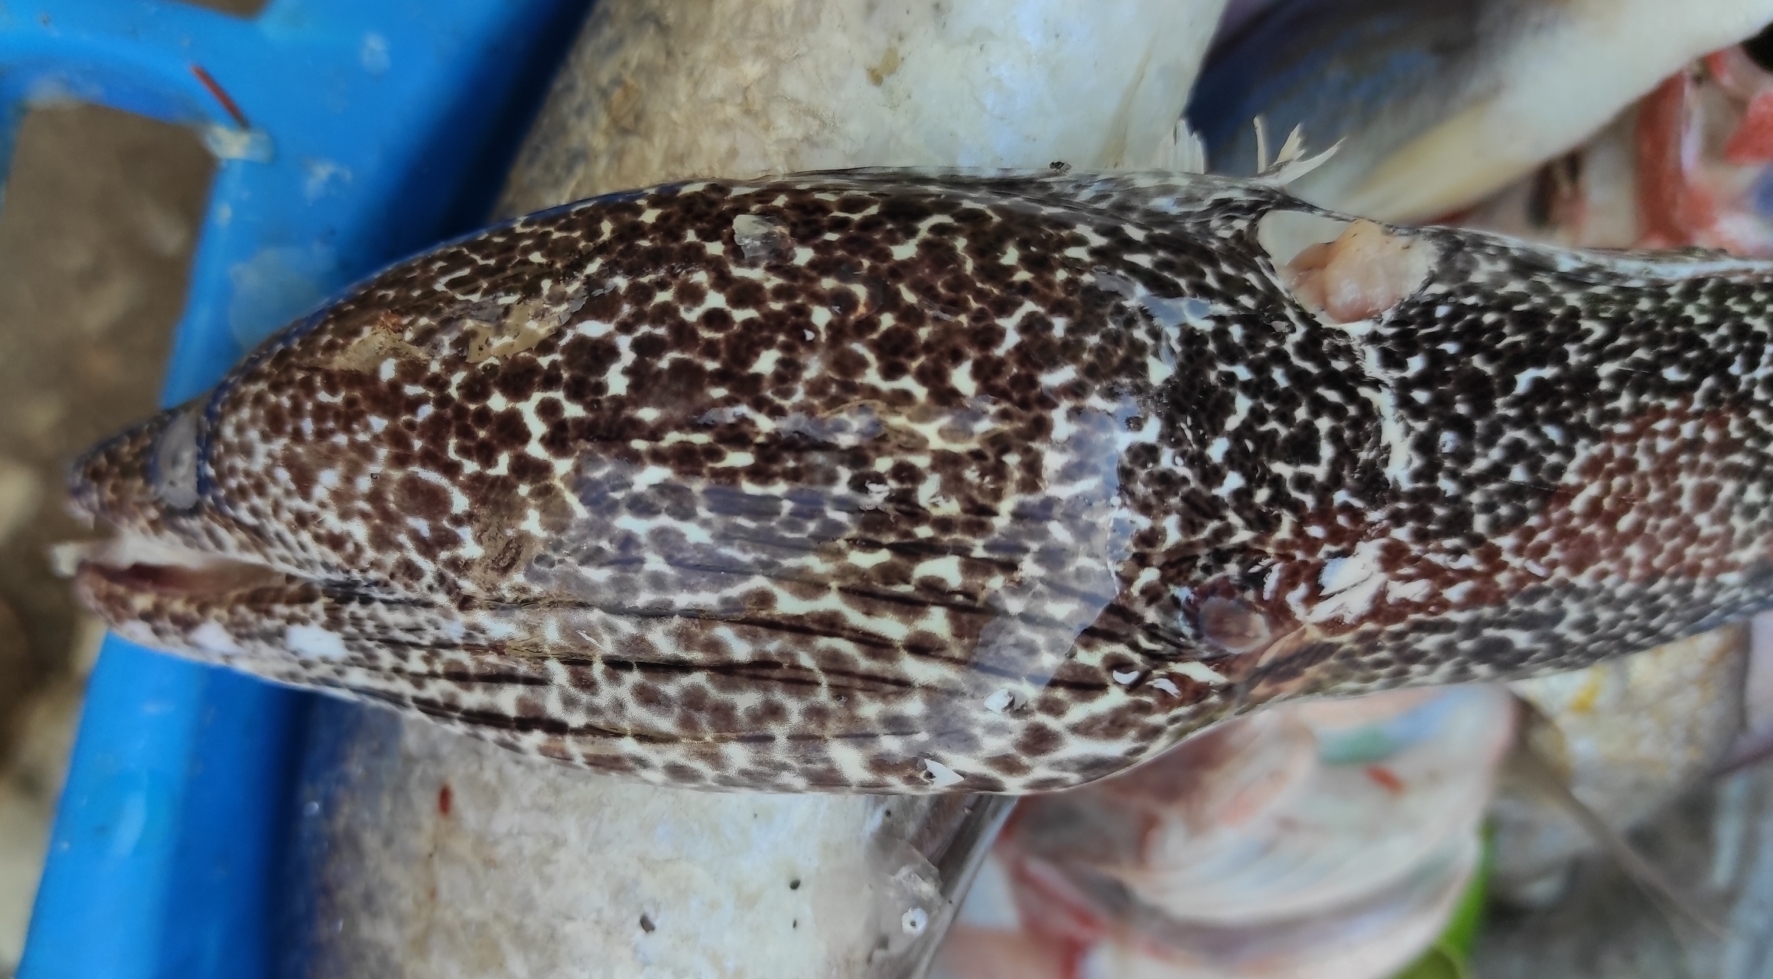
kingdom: Animalia
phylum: Chordata
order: Anguilliformes
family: Muraenidae
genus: Gymnothorax
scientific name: Gymnothorax moringa
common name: Spotted moray
